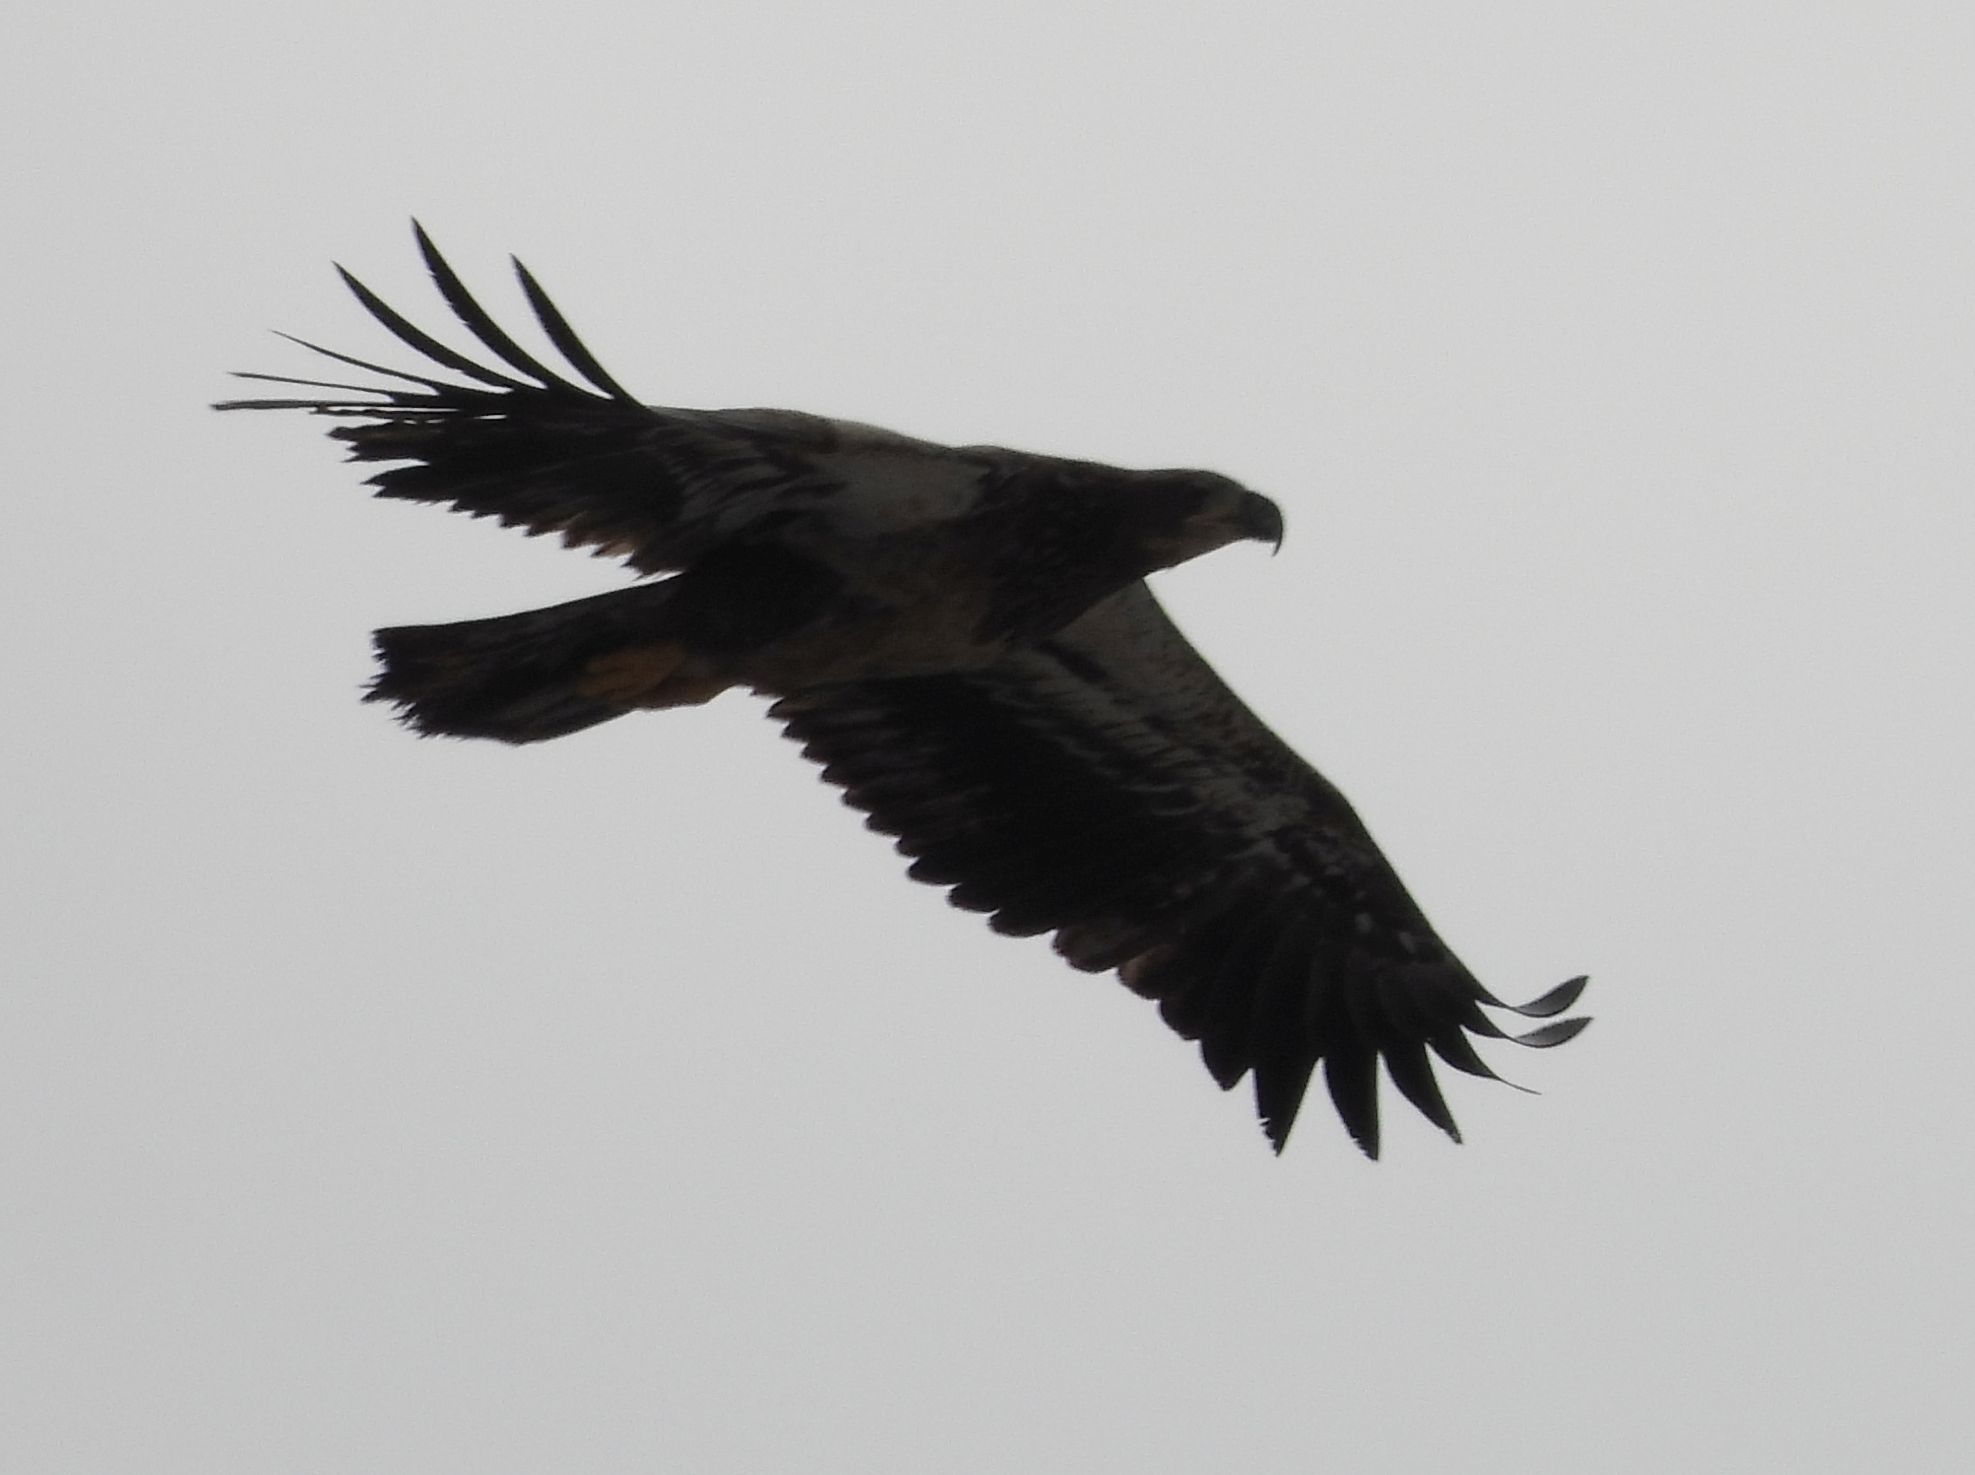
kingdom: Animalia
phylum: Chordata
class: Aves
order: Accipitriformes
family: Accipitridae
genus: Haliaeetus
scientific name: Haliaeetus leucocephalus
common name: Bald eagle
